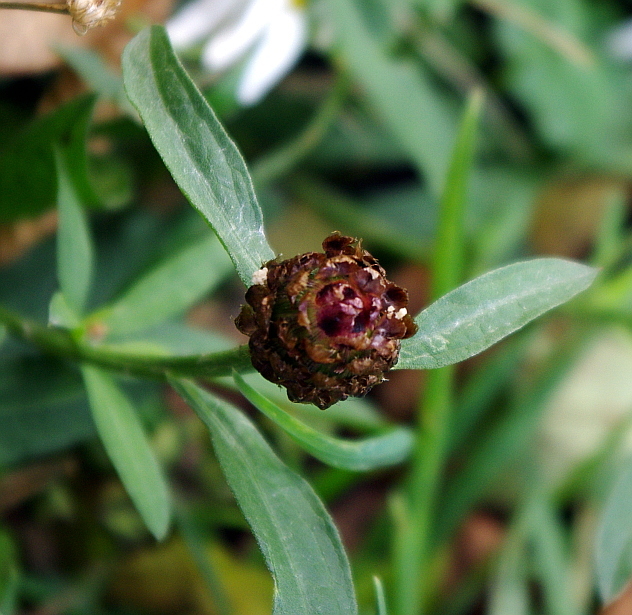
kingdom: Plantae
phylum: Tracheophyta
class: Magnoliopsida
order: Asterales
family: Asteraceae
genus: Centaurea
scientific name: Centaurea jacea
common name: Brown knapweed
